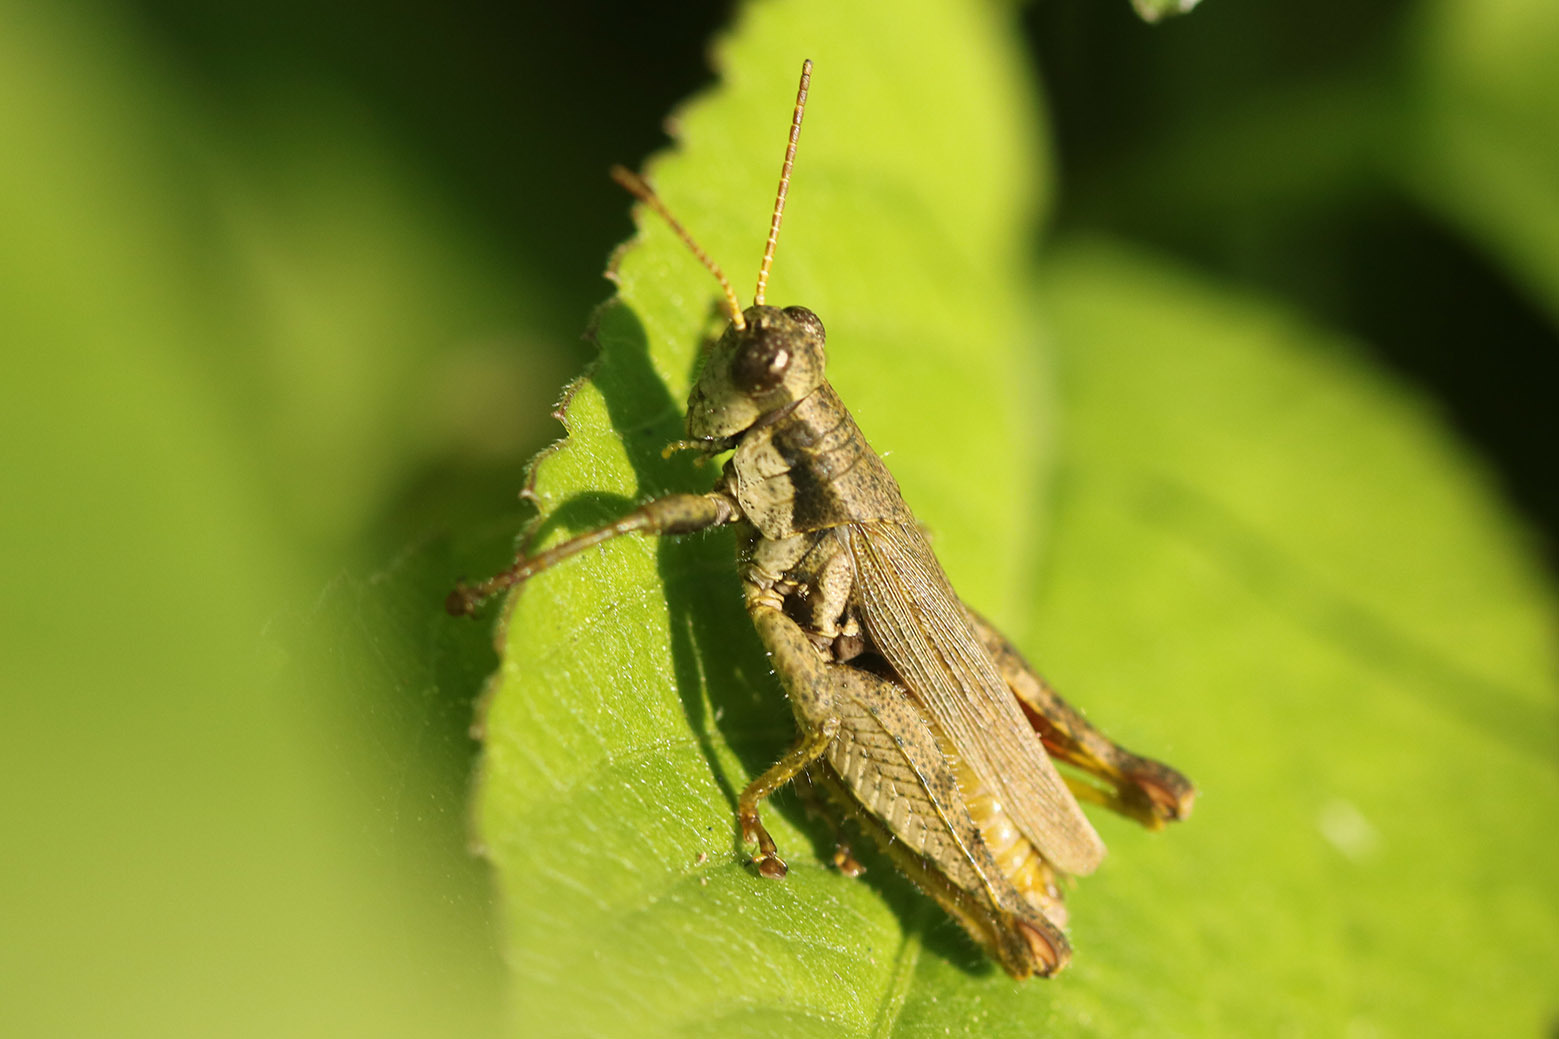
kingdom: Animalia
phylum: Arthropoda
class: Insecta
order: Orthoptera
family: Acrididae
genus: Ronderosia
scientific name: Ronderosia bergii
